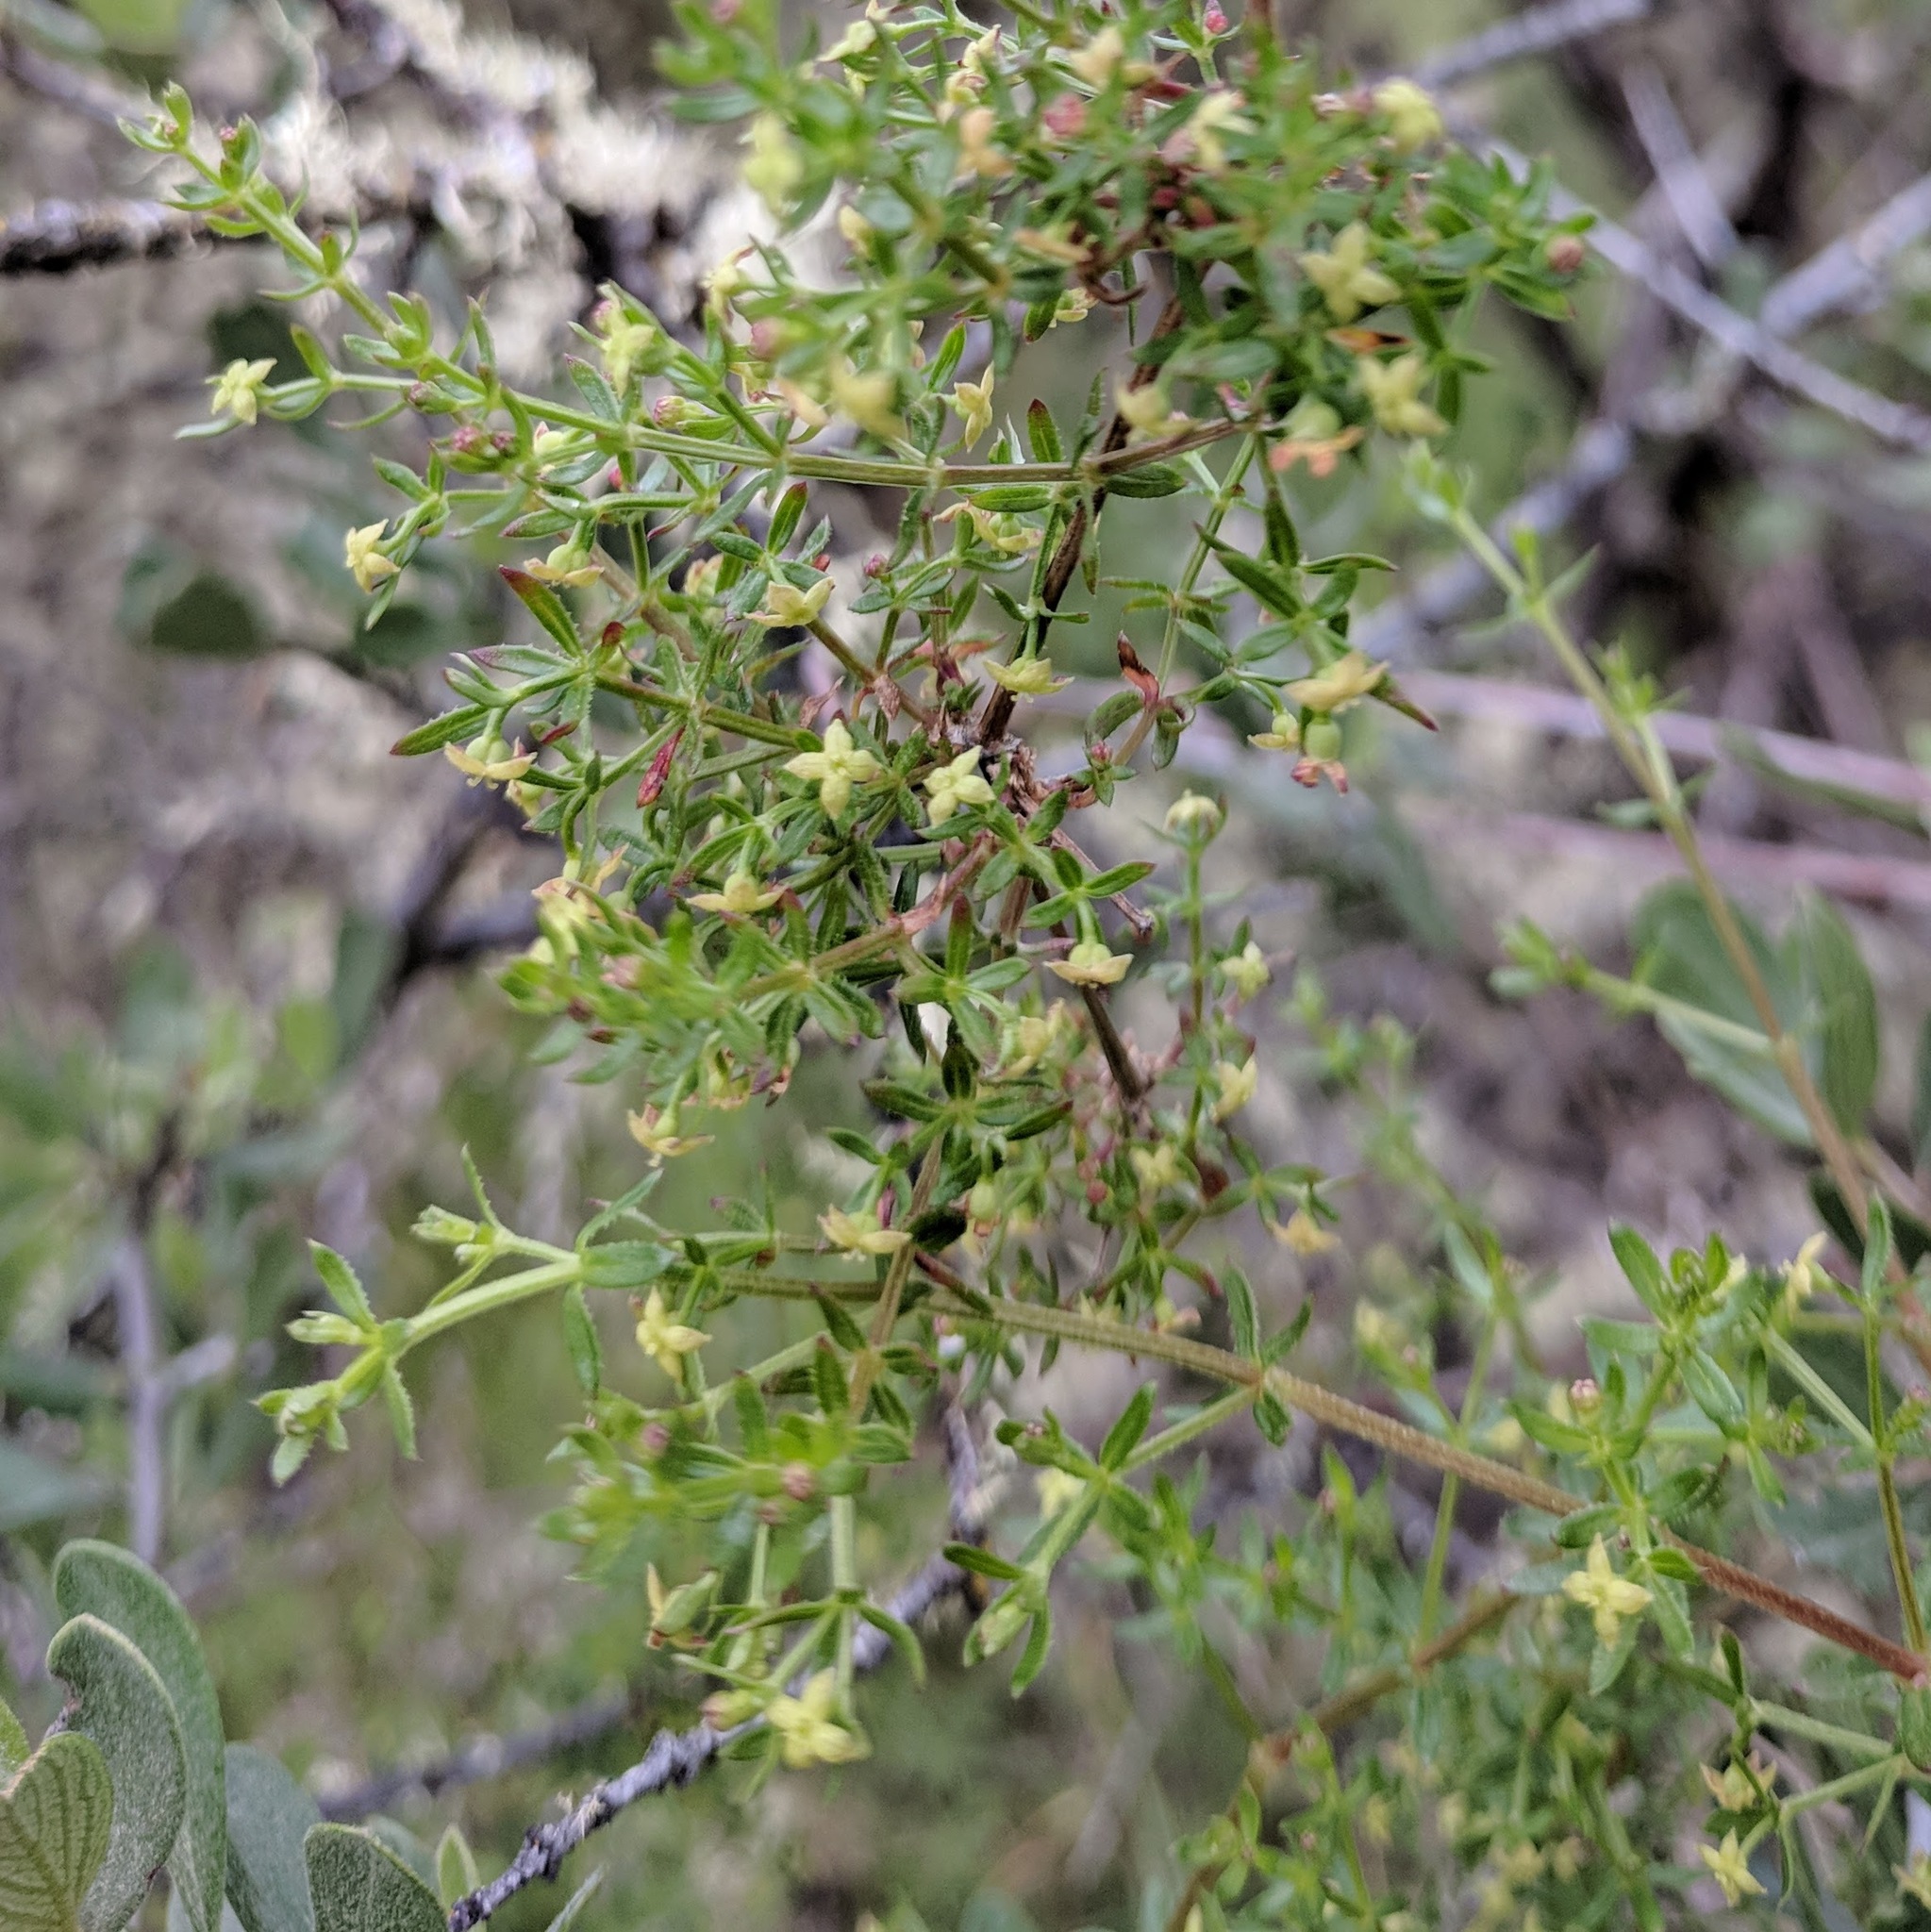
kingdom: Plantae
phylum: Tracheophyta
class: Magnoliopsida
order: Gentianales
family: Rubiaceae
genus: Galium
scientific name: Galium bolanderi
